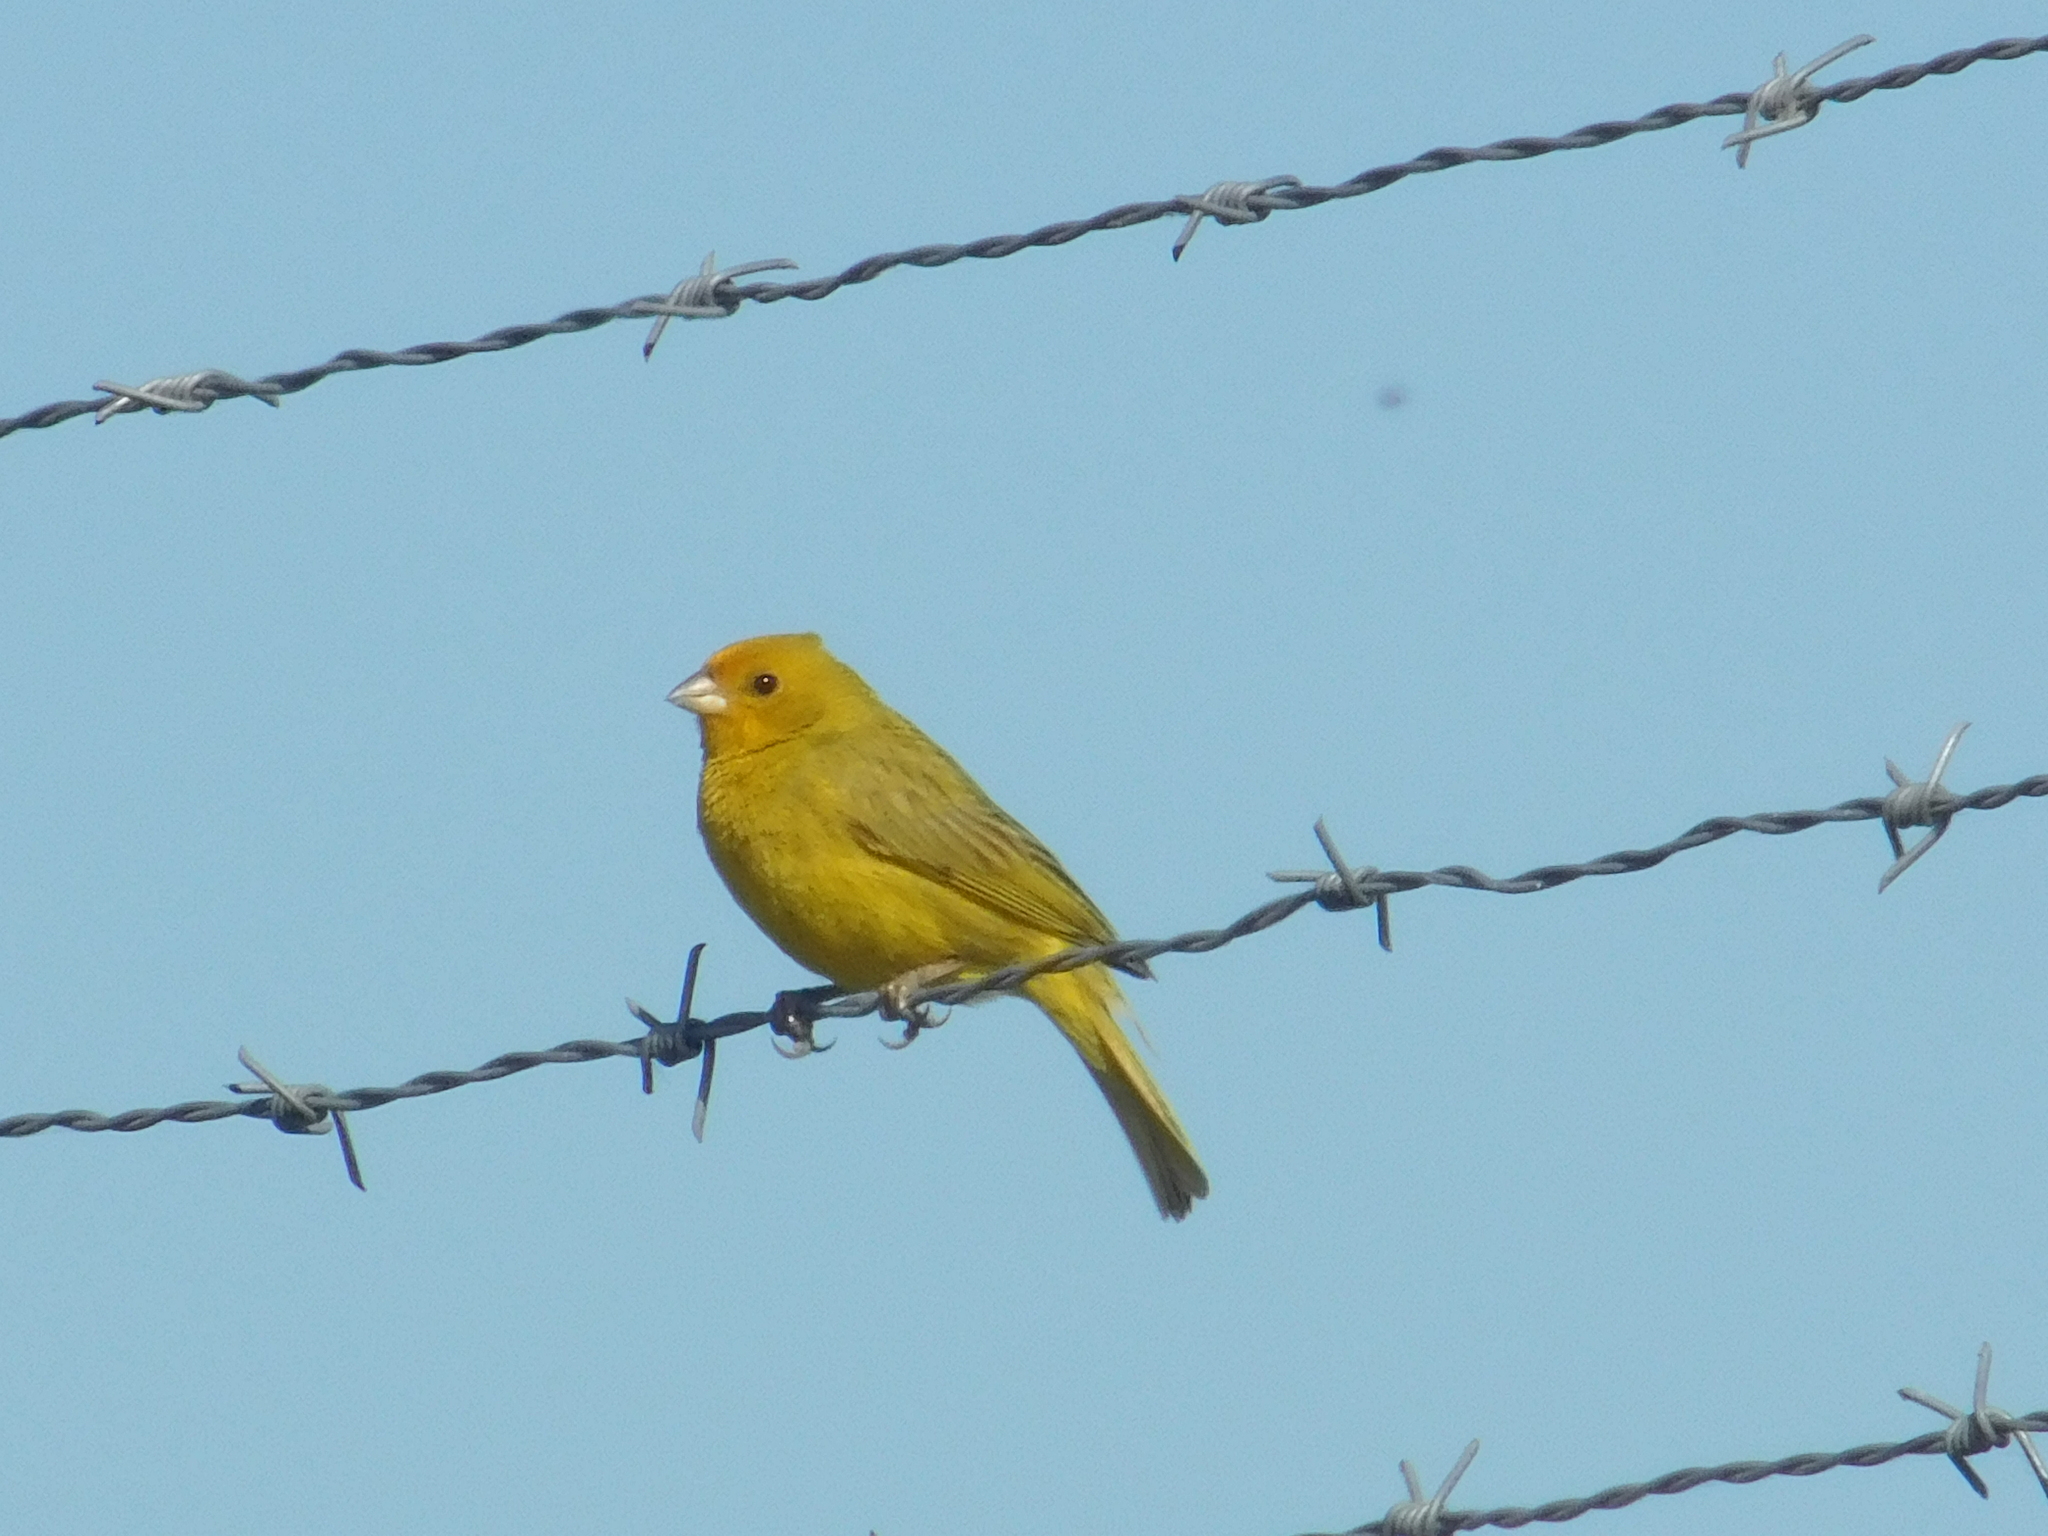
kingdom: Animalia
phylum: Chordata
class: Aves
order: Passeriformes
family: Thraupidae
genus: Sicalis
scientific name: Sicalis flaveola
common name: Saffron finch
